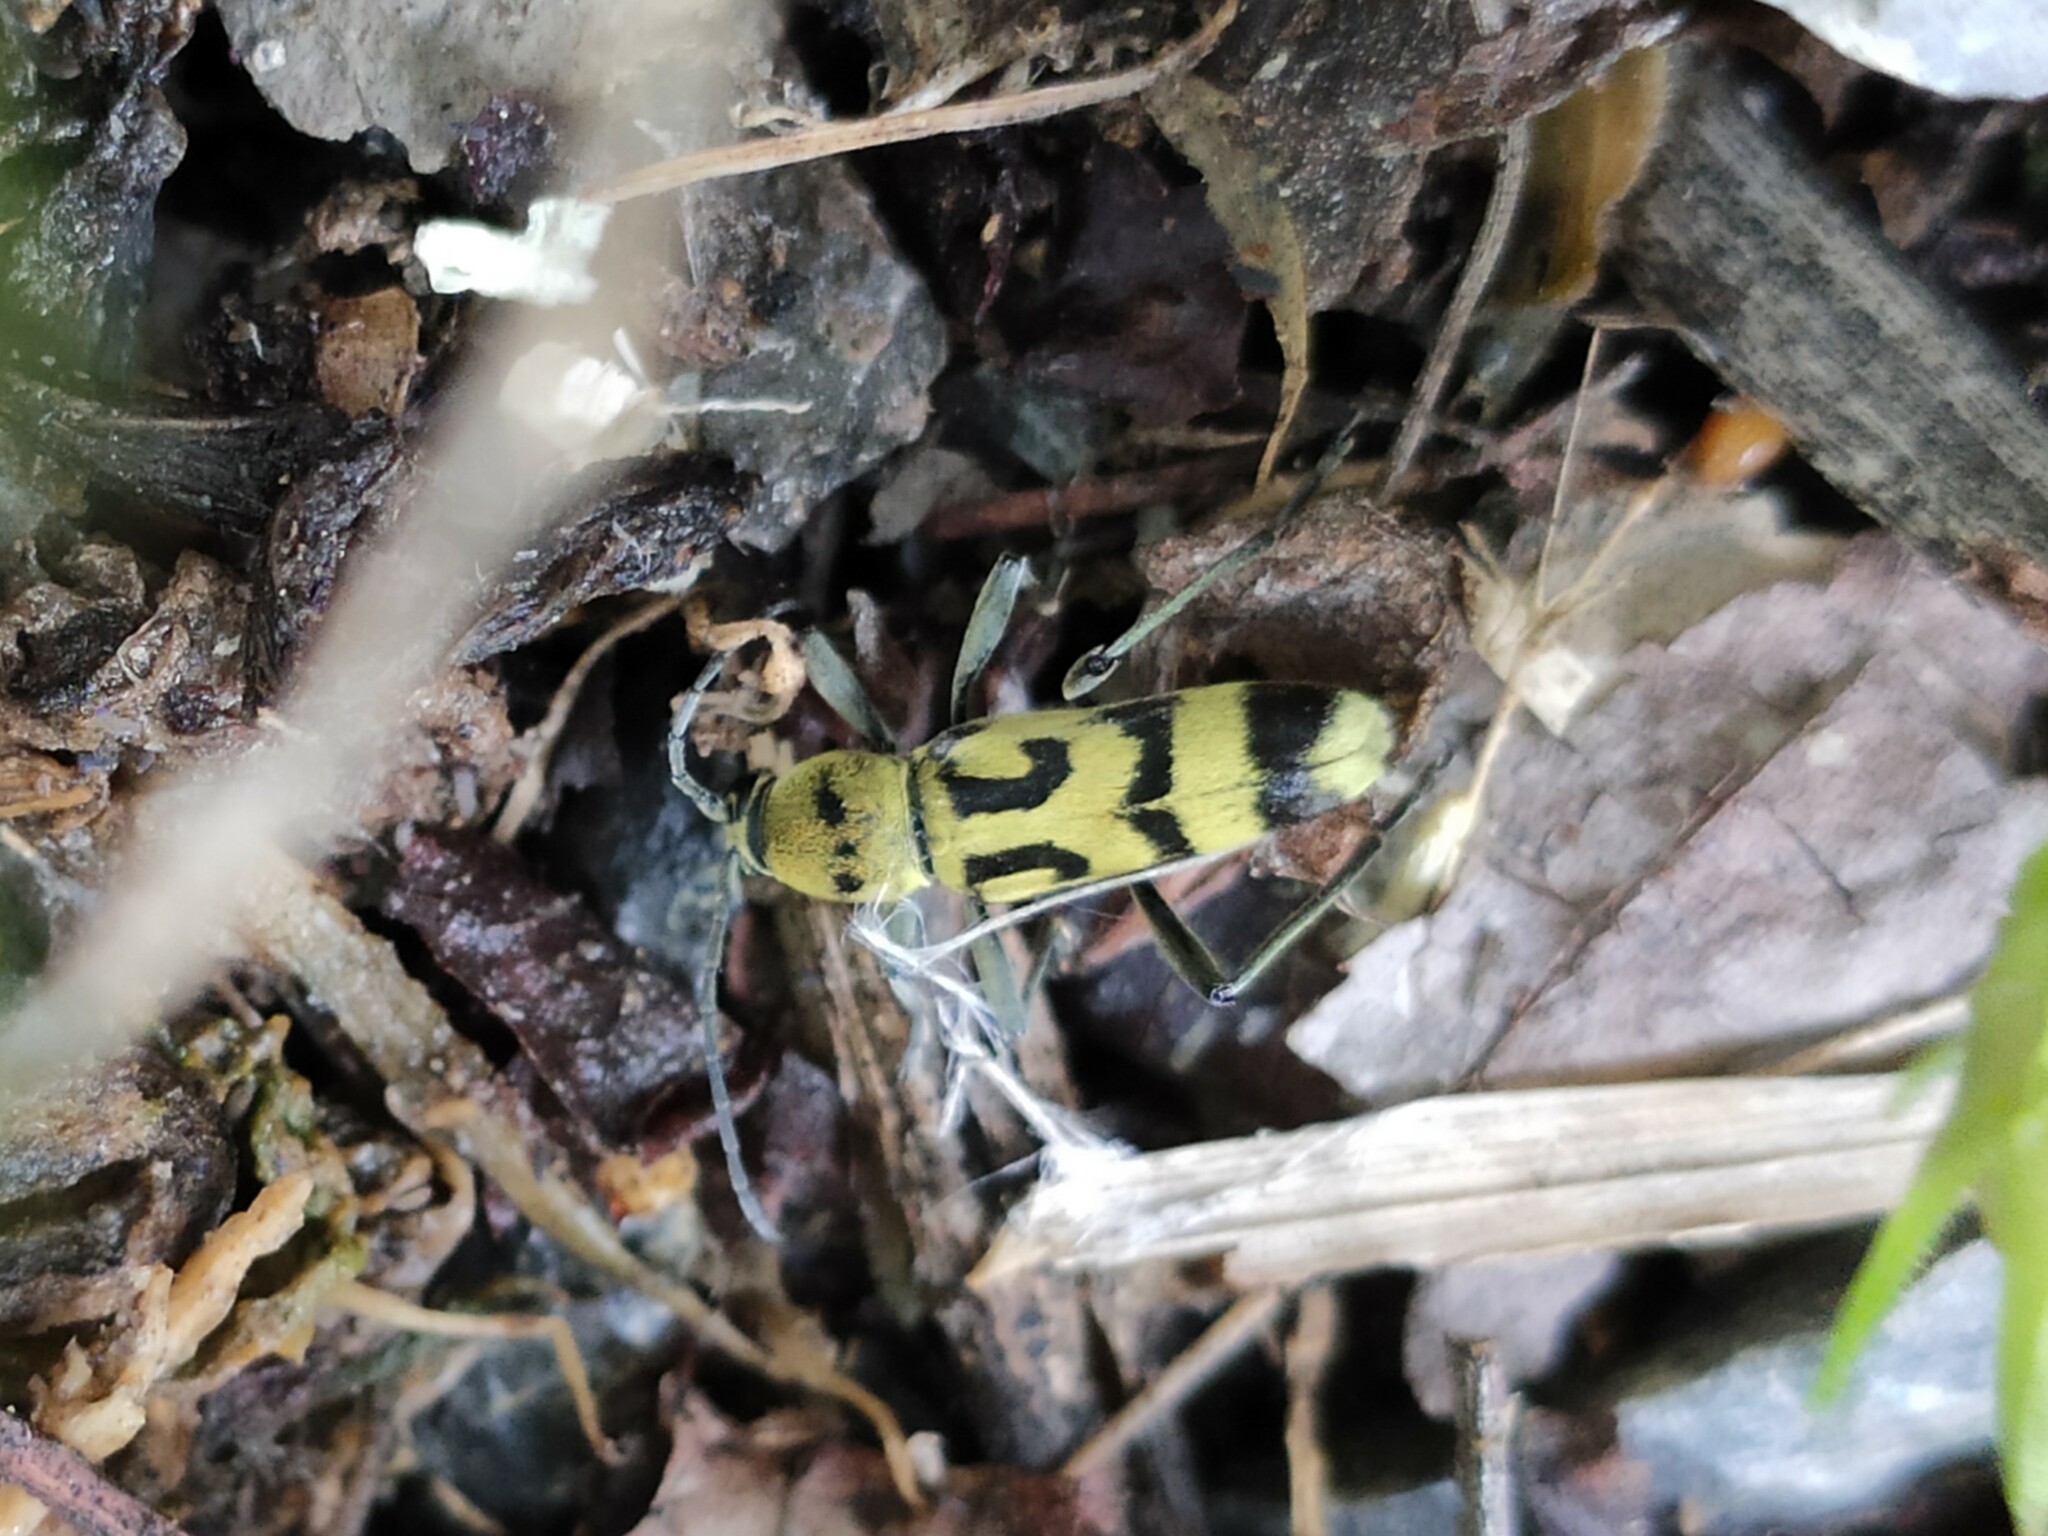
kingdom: Animalia
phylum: Arthropoda
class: Insecta
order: Coleoptera
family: Cerambycidae
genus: Chlorophorus
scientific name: Chlorophorus varius
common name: Grape wood borer
